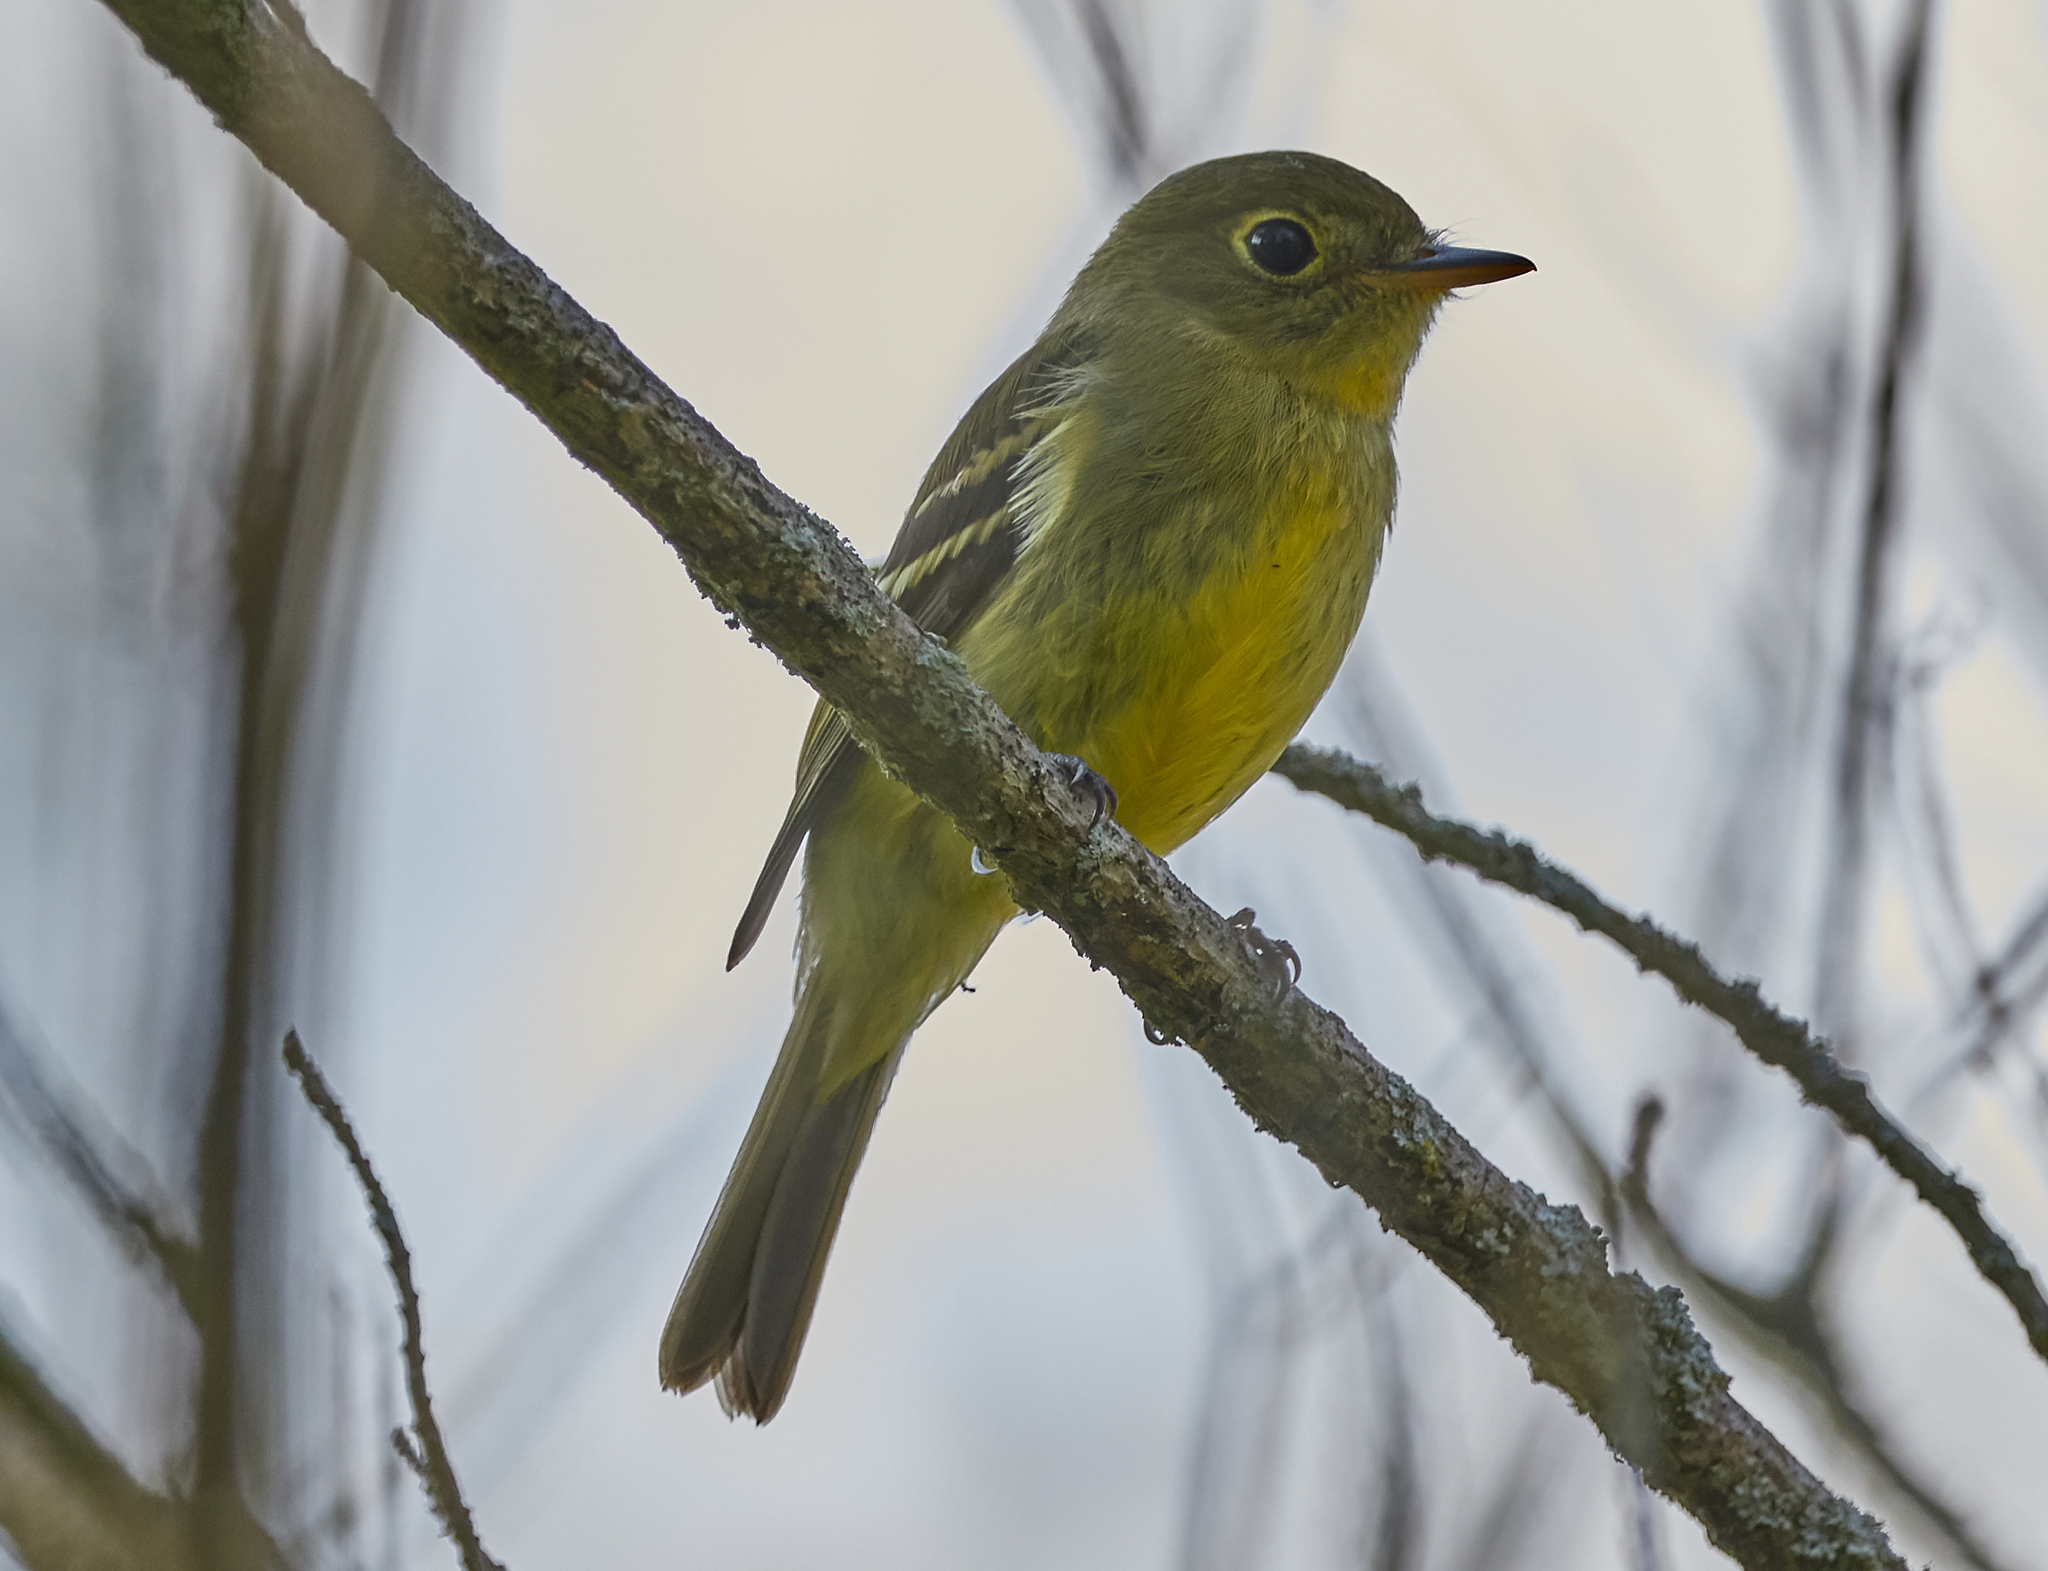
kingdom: Animalia
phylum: Chordata
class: Aves
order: Passeriformes
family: Tyrannidae
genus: Empidonax
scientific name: Empidonax flaviventris
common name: Yellow-bellied flycatcher
